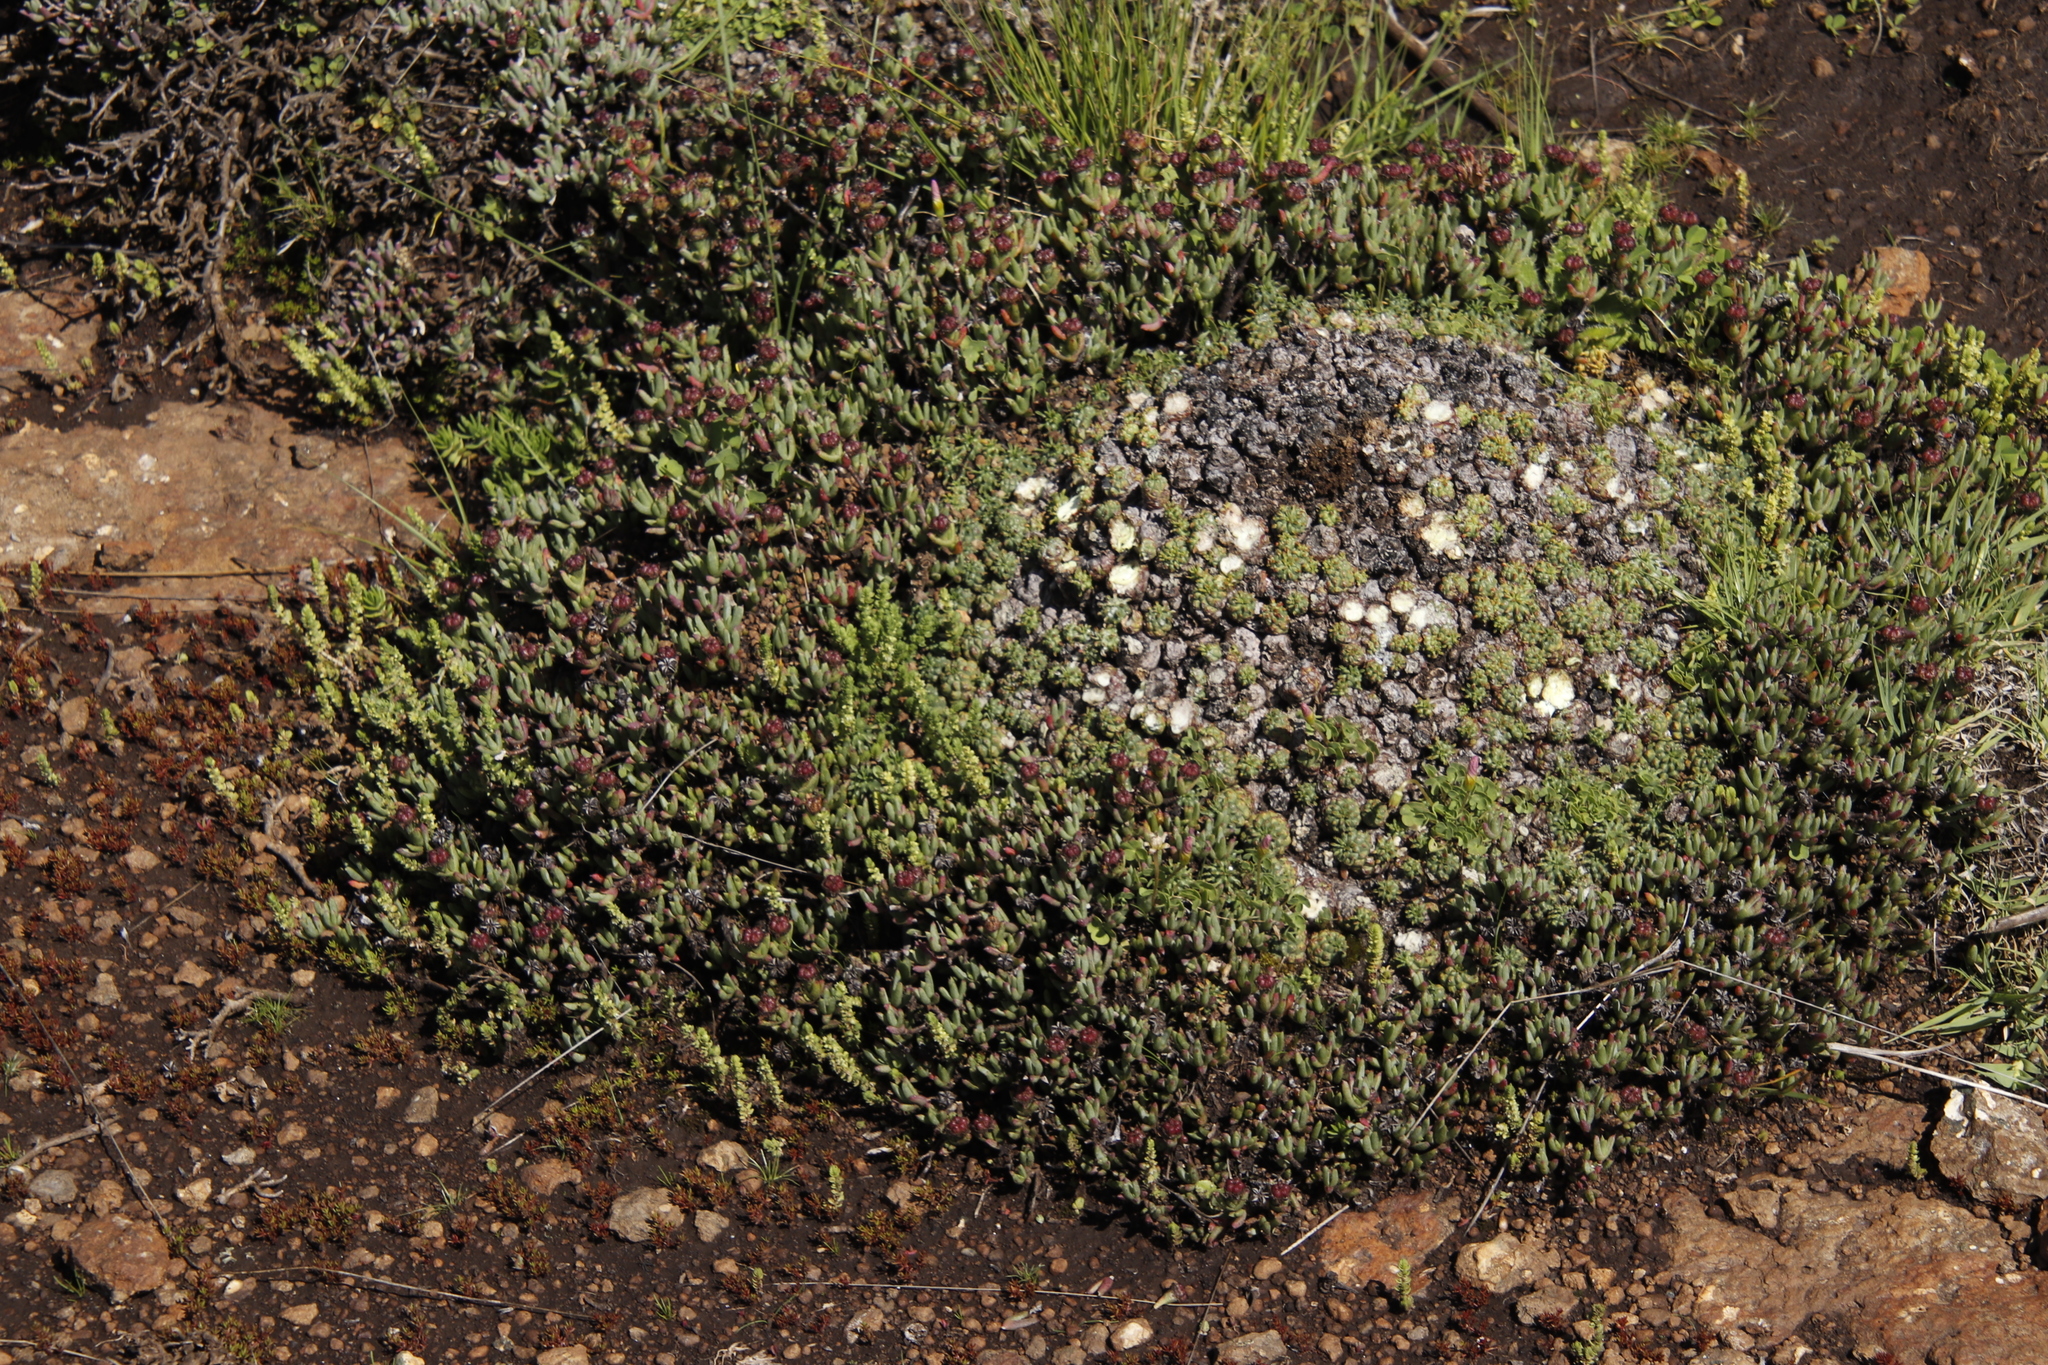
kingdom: Plantae
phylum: Tracheophyta
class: Magnoliopsida
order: Malpighiales
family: Euphorbiaceae
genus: Euphorbia
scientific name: Euphorbia clavarioides
